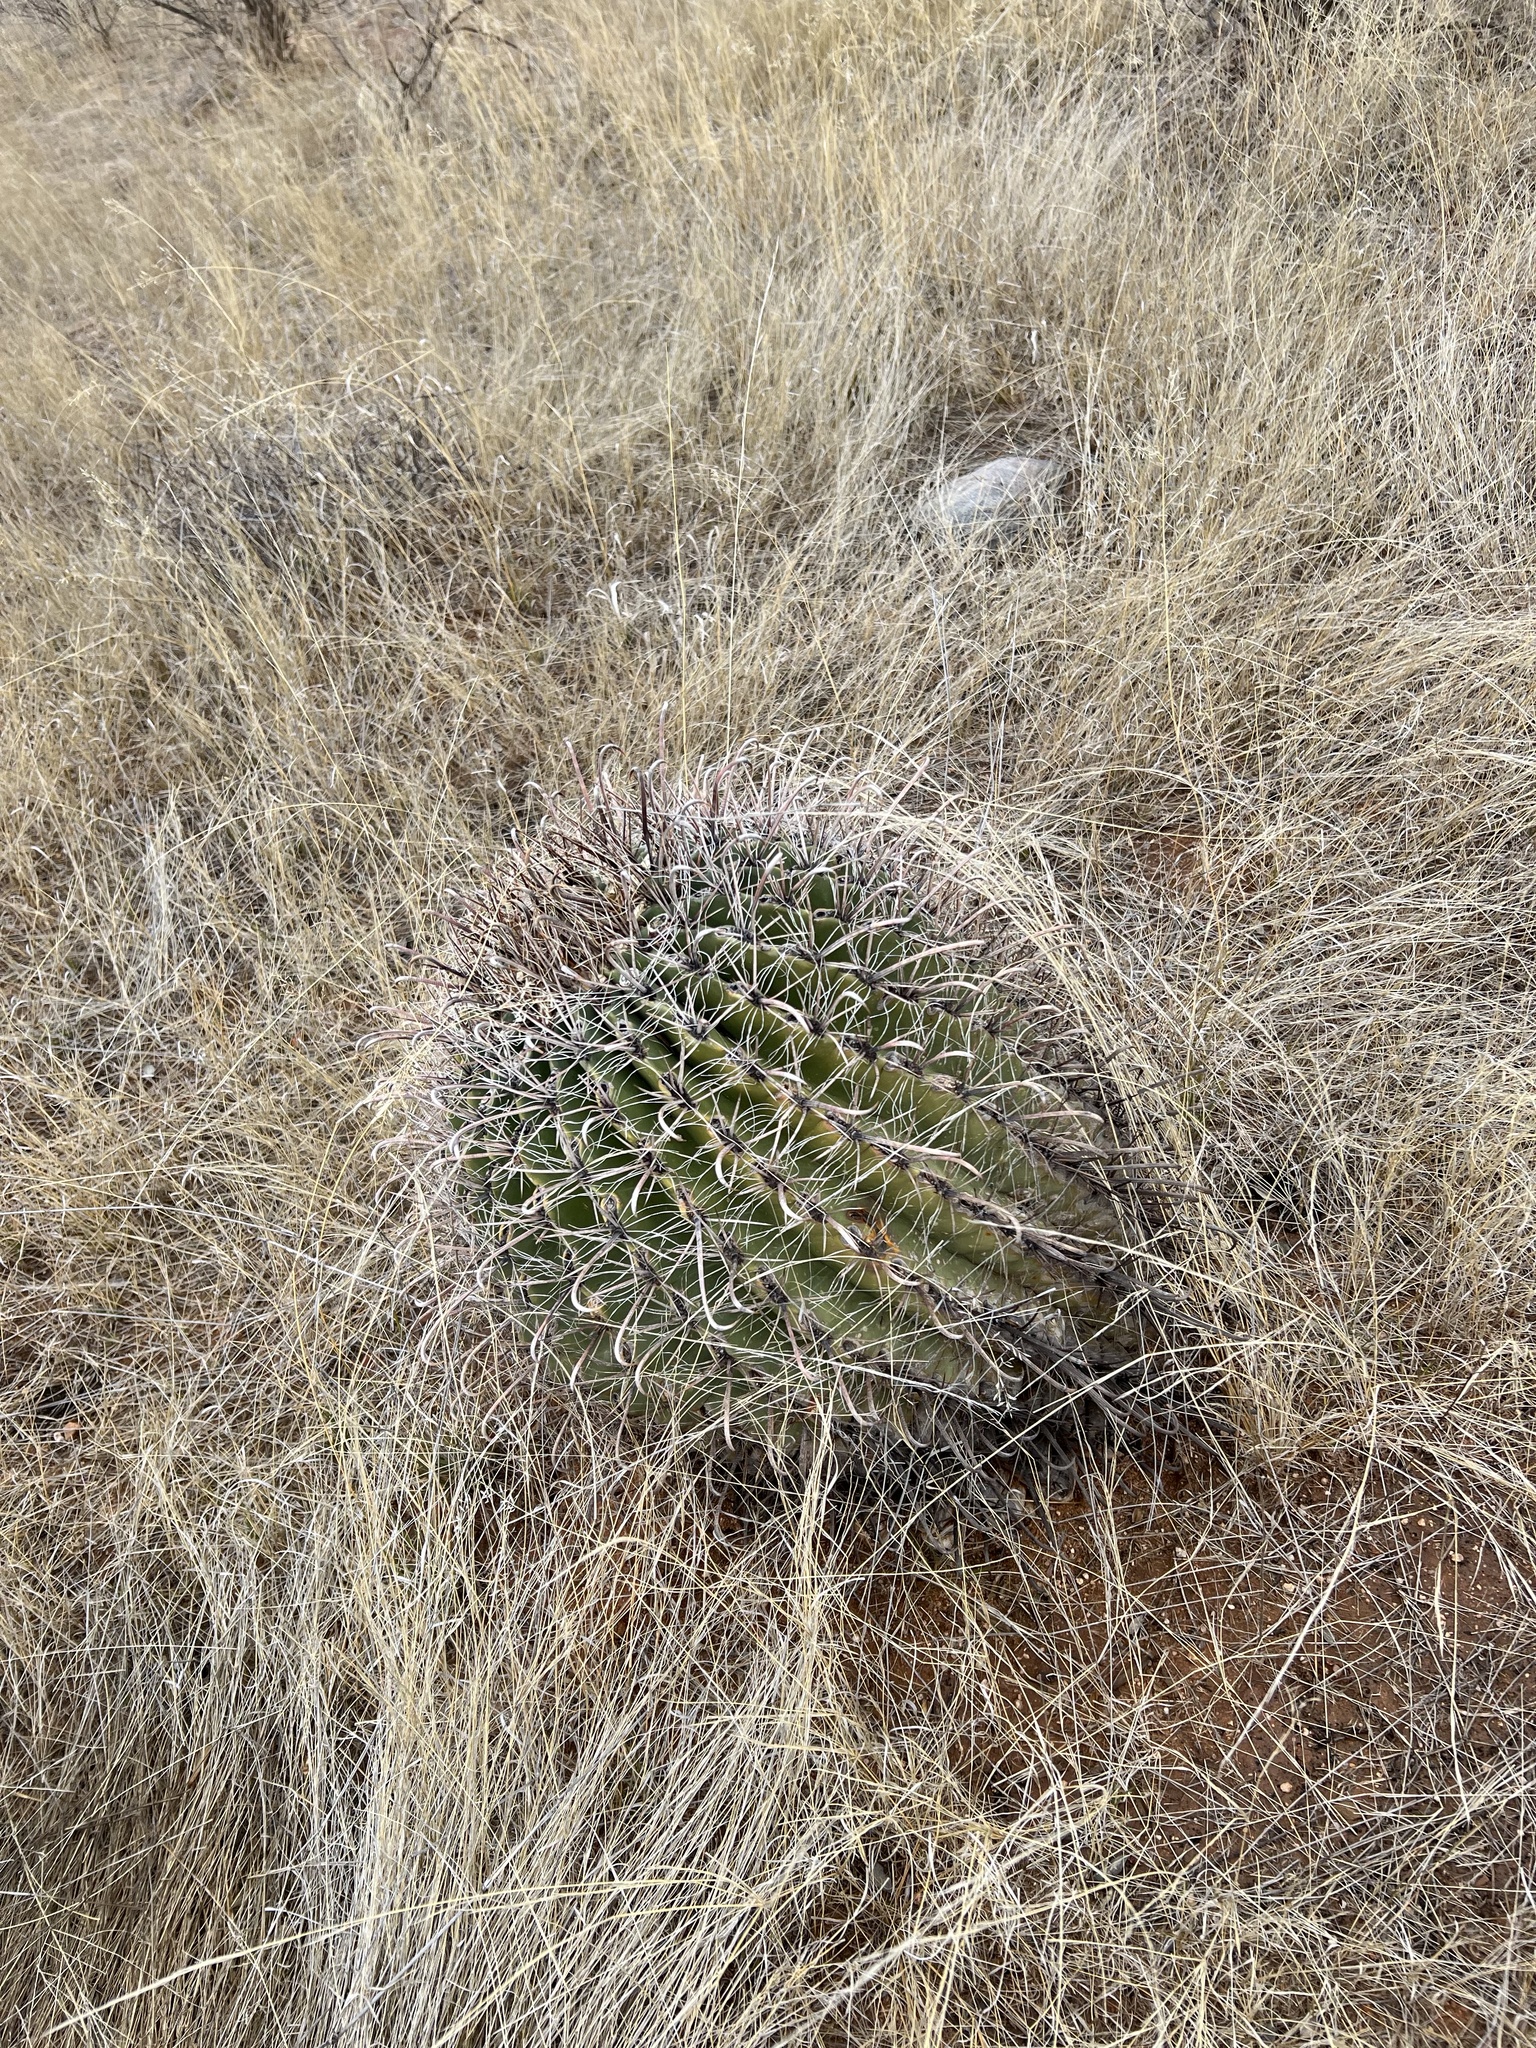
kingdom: Plantae
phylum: Tracheophyta
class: Magnoliopsida
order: Caryophyllales
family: Cactaceae
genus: Ferocactus
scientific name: Ferocactus wislizeni
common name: Candy barrel cactus
